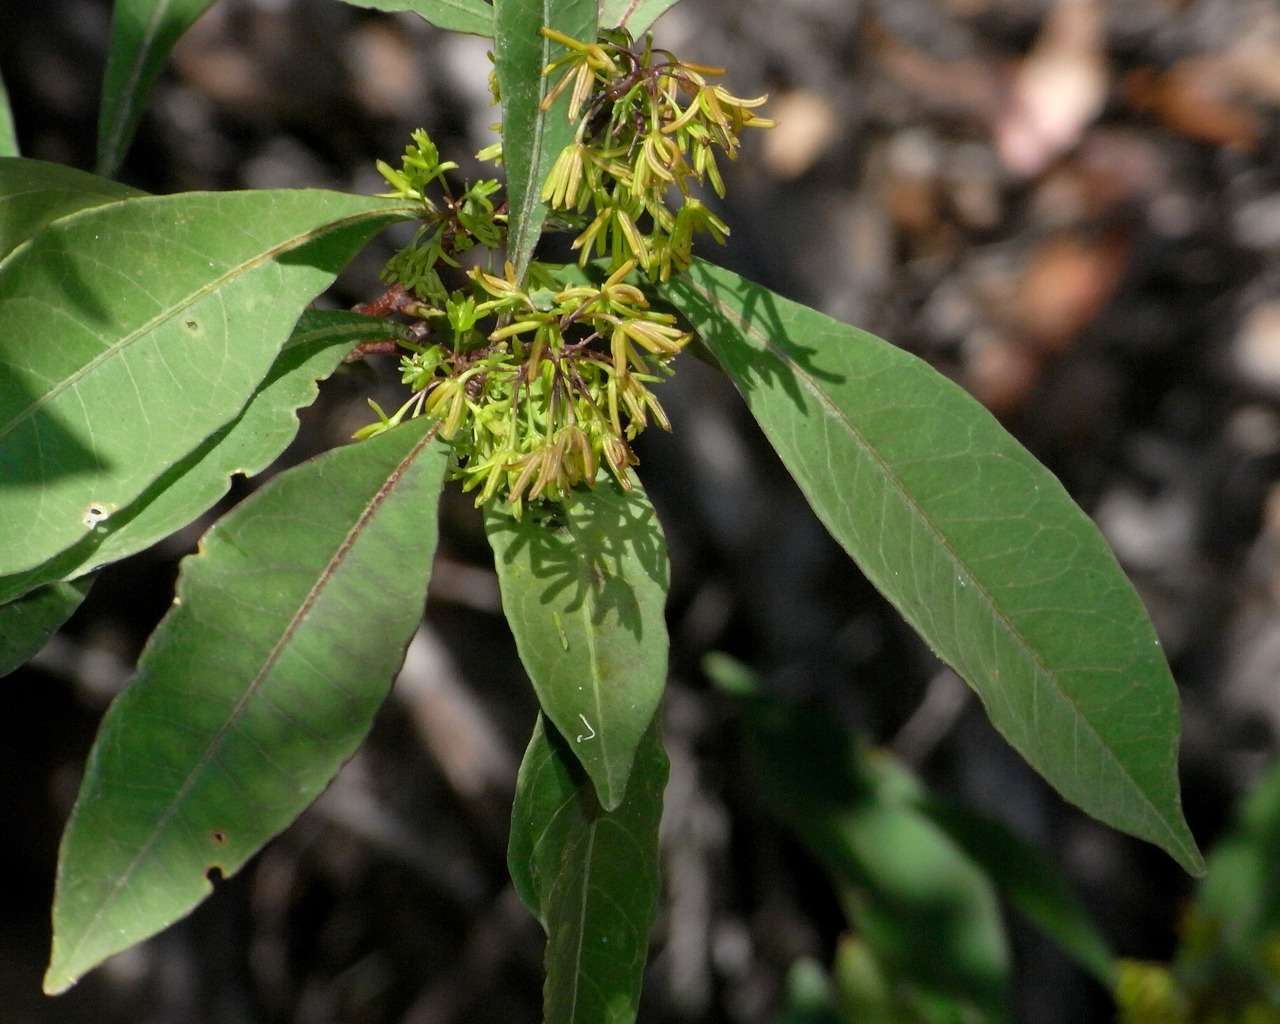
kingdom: Plantae
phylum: Tracheophyta
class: Magnoliopsida
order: Sapindales
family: Sapindaceae
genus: Dodonaea
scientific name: Dodonaea triquetra
